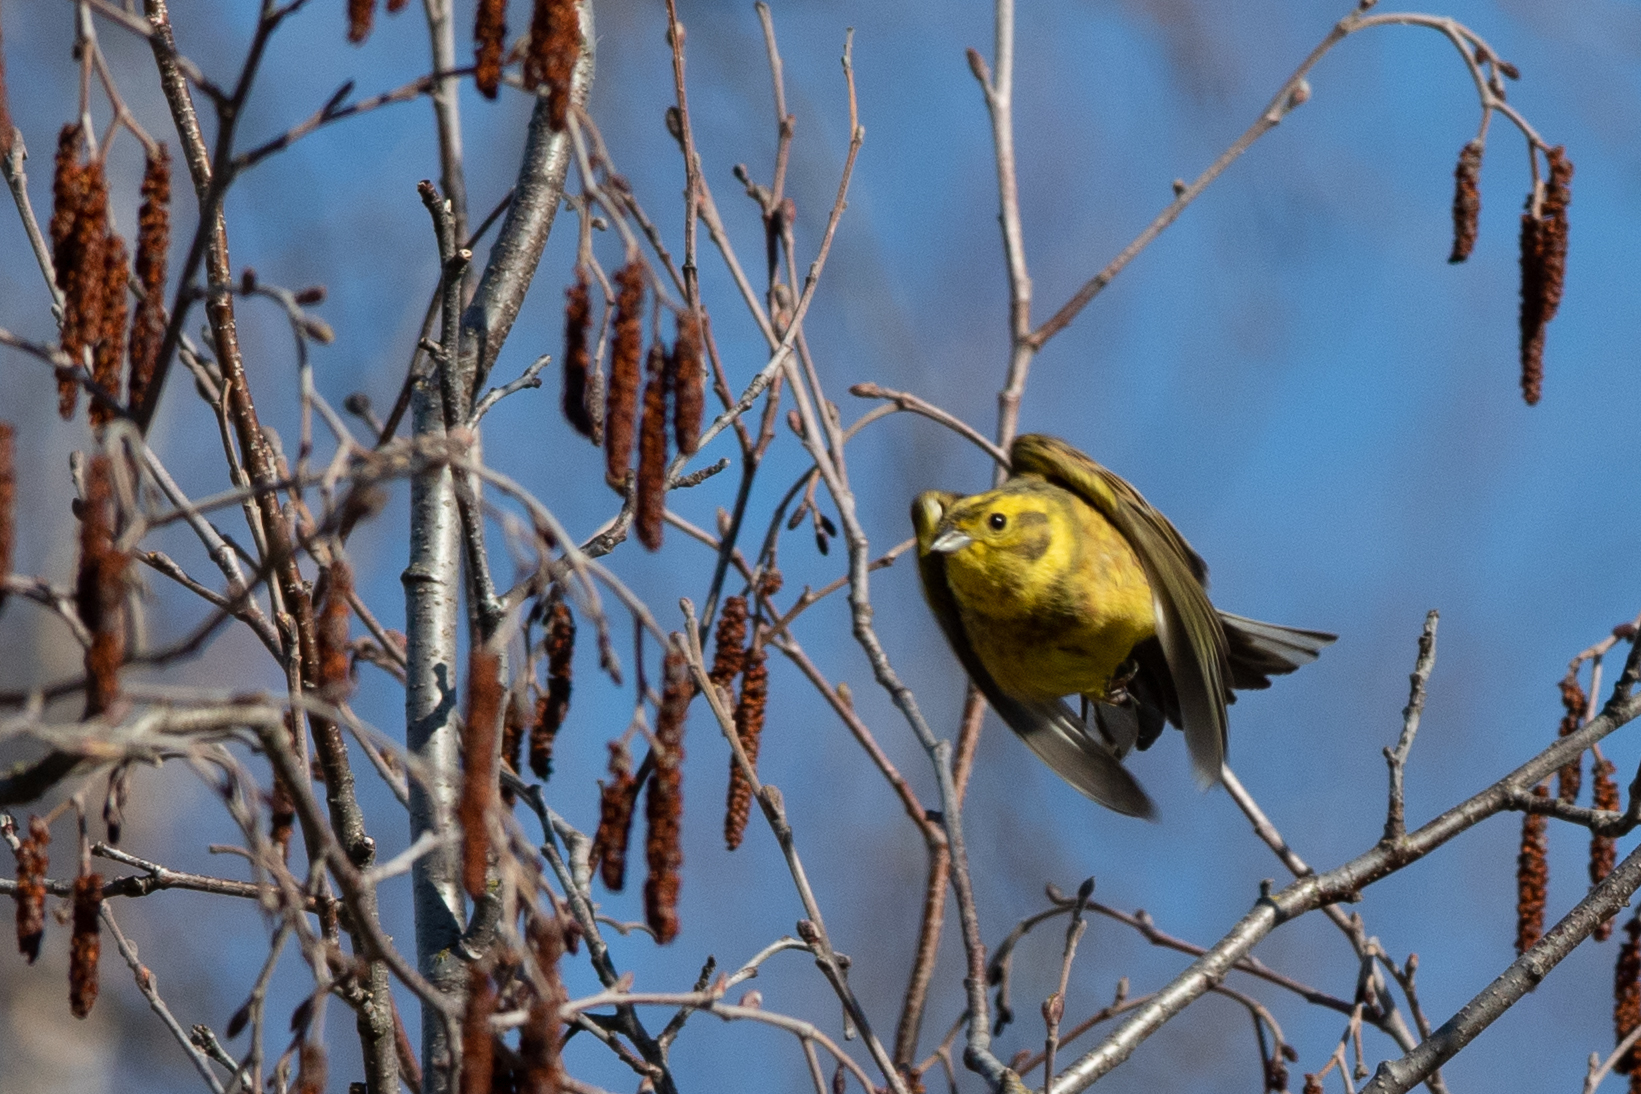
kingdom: Animalia
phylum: Chordata
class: Aves
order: Passeriformes
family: Emberizidae
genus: Emberiza
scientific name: Emberiza citrinella
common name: Yellowhammer
